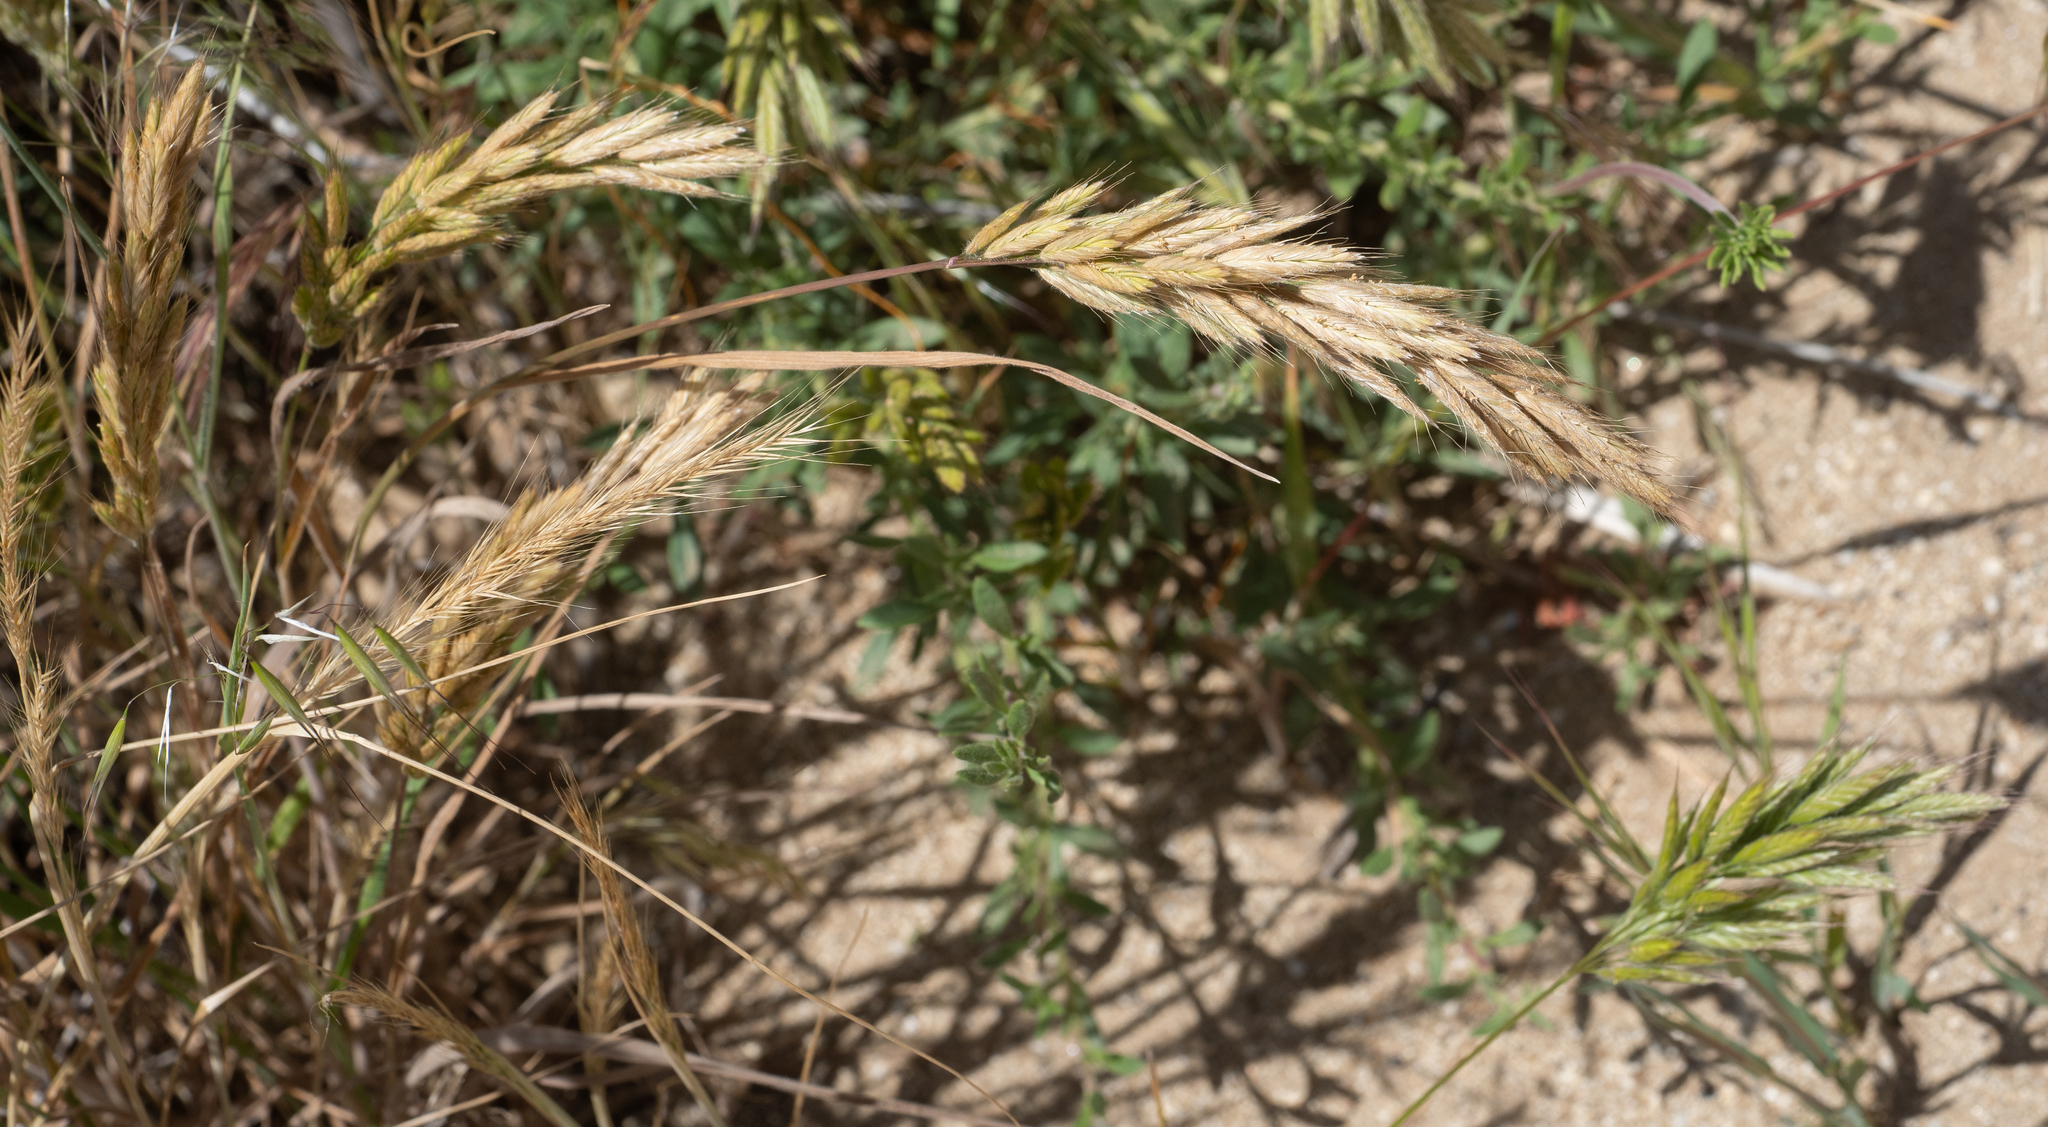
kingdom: Plantae
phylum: Tracheophyta
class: Liliopsida
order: Poales
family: Poaceae
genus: Bromus
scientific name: Bromus hordeaceus
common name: Soft brome
